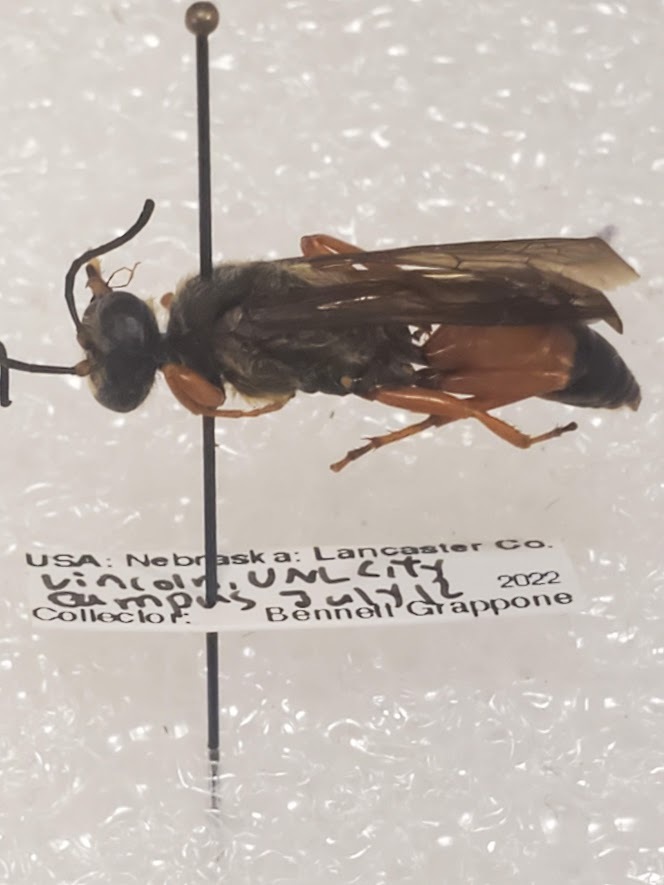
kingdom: Animalia
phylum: Arthropoda
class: Insecta
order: Hymenoptera
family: Sphecidae
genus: Sphex
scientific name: Sphex ichneumoneus
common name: Great golden digger wasp
